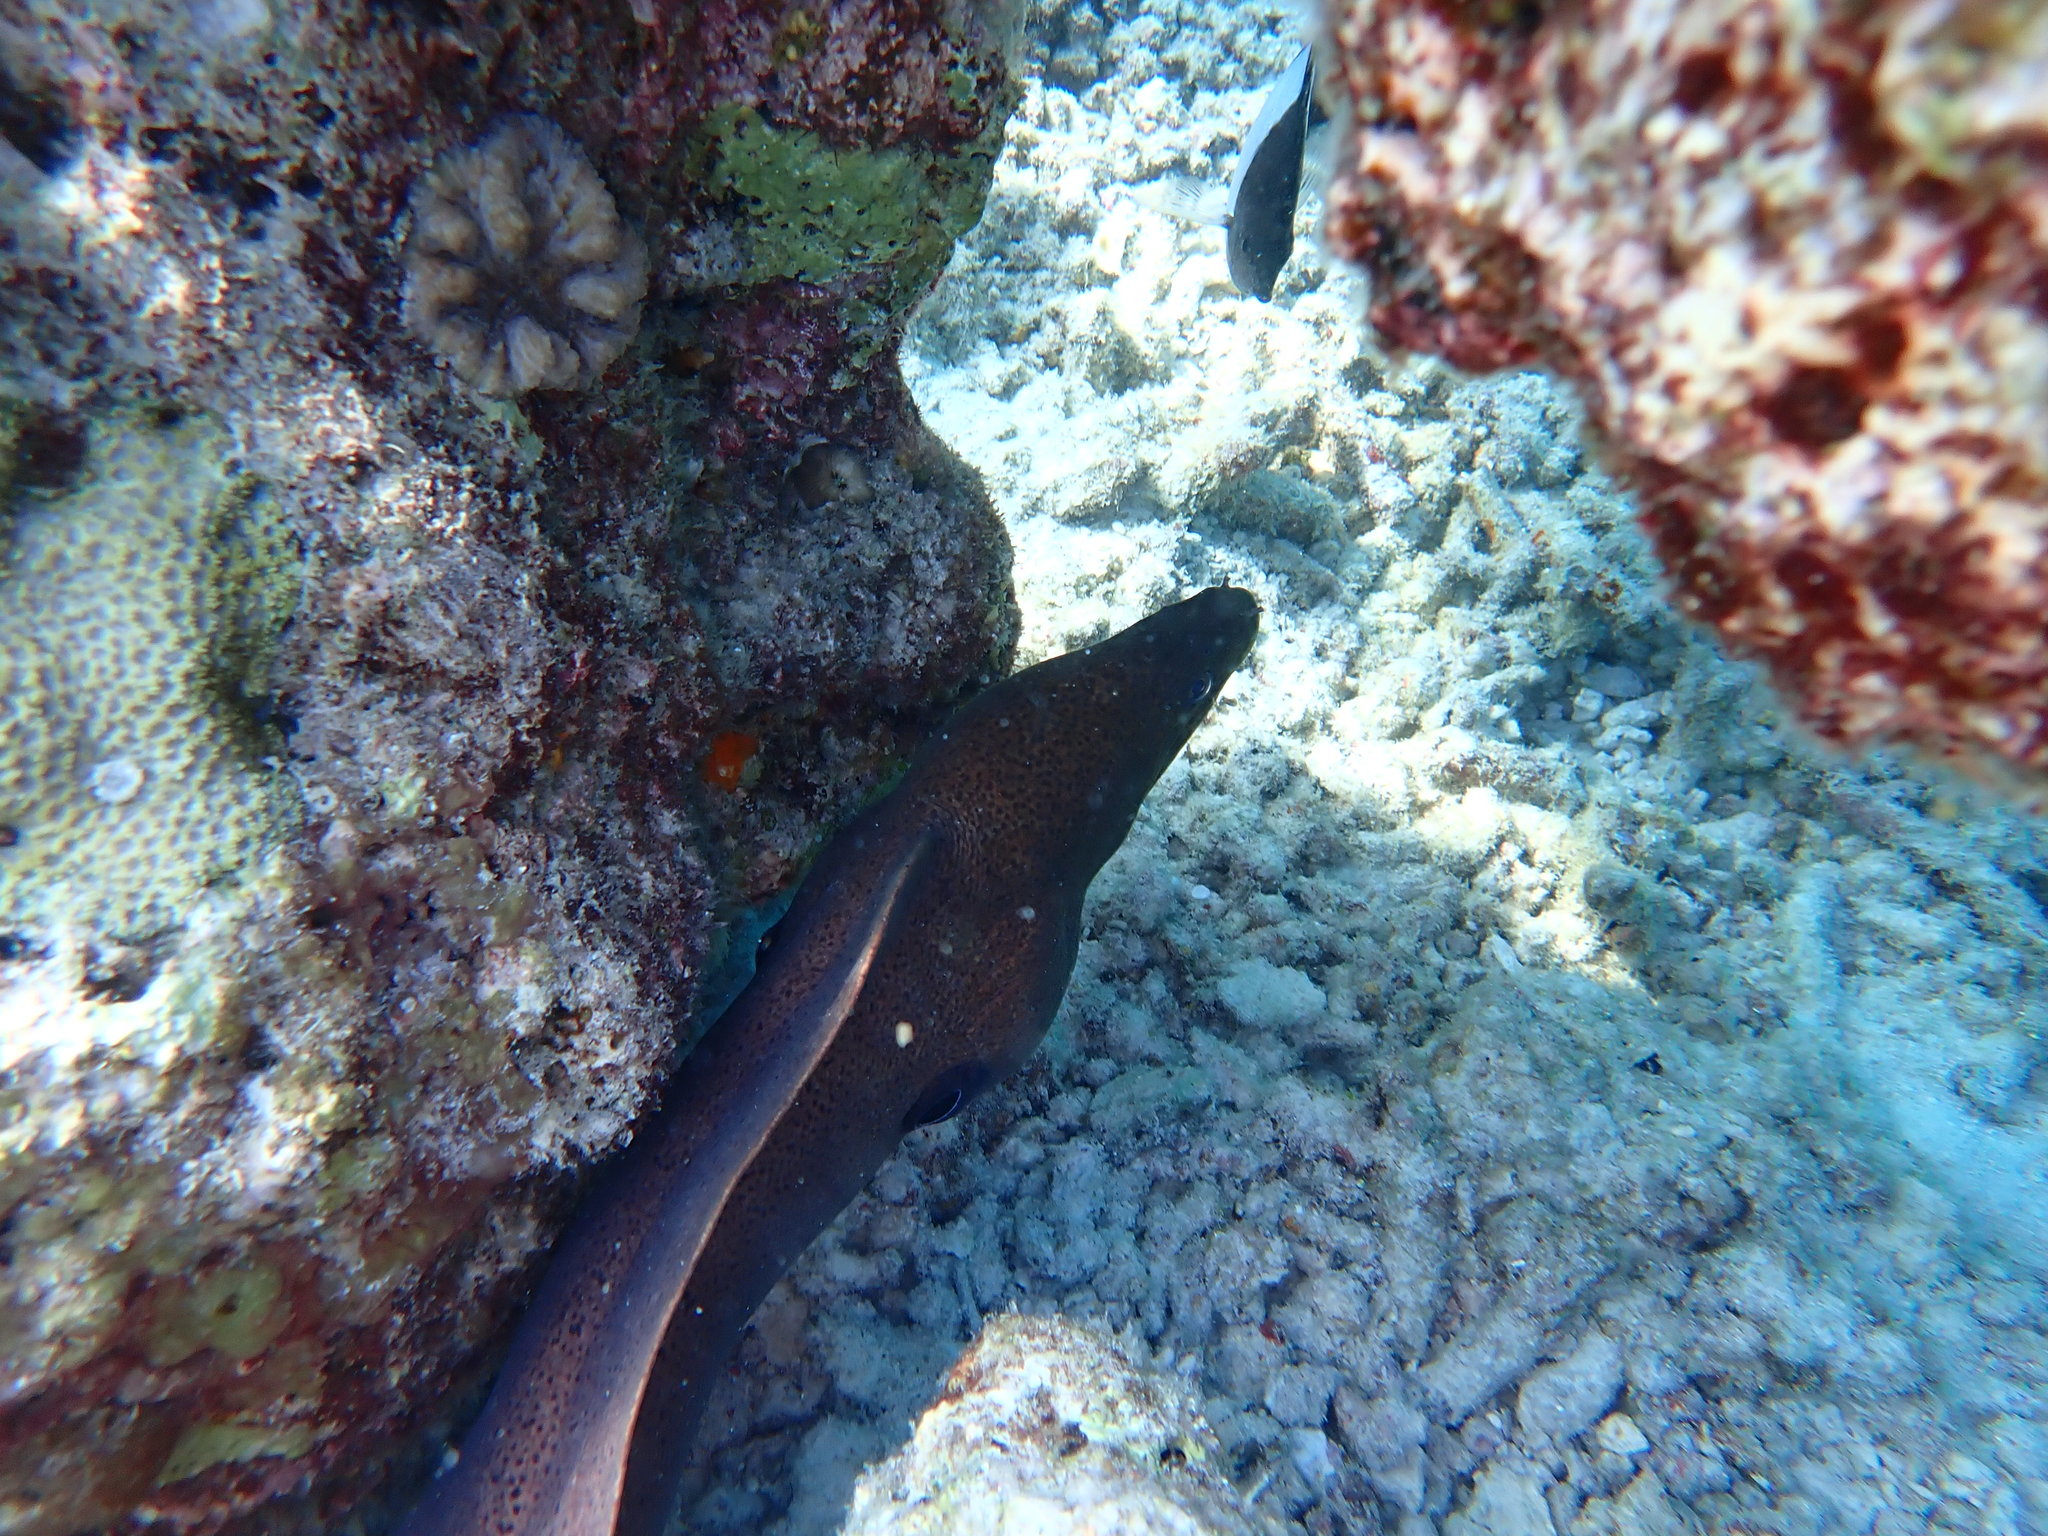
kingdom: Animalia
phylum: Chordata
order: Anguilliformes
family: Muraenidae
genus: Gymnothorax
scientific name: Gymnothorax javanicus
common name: Giant moray
